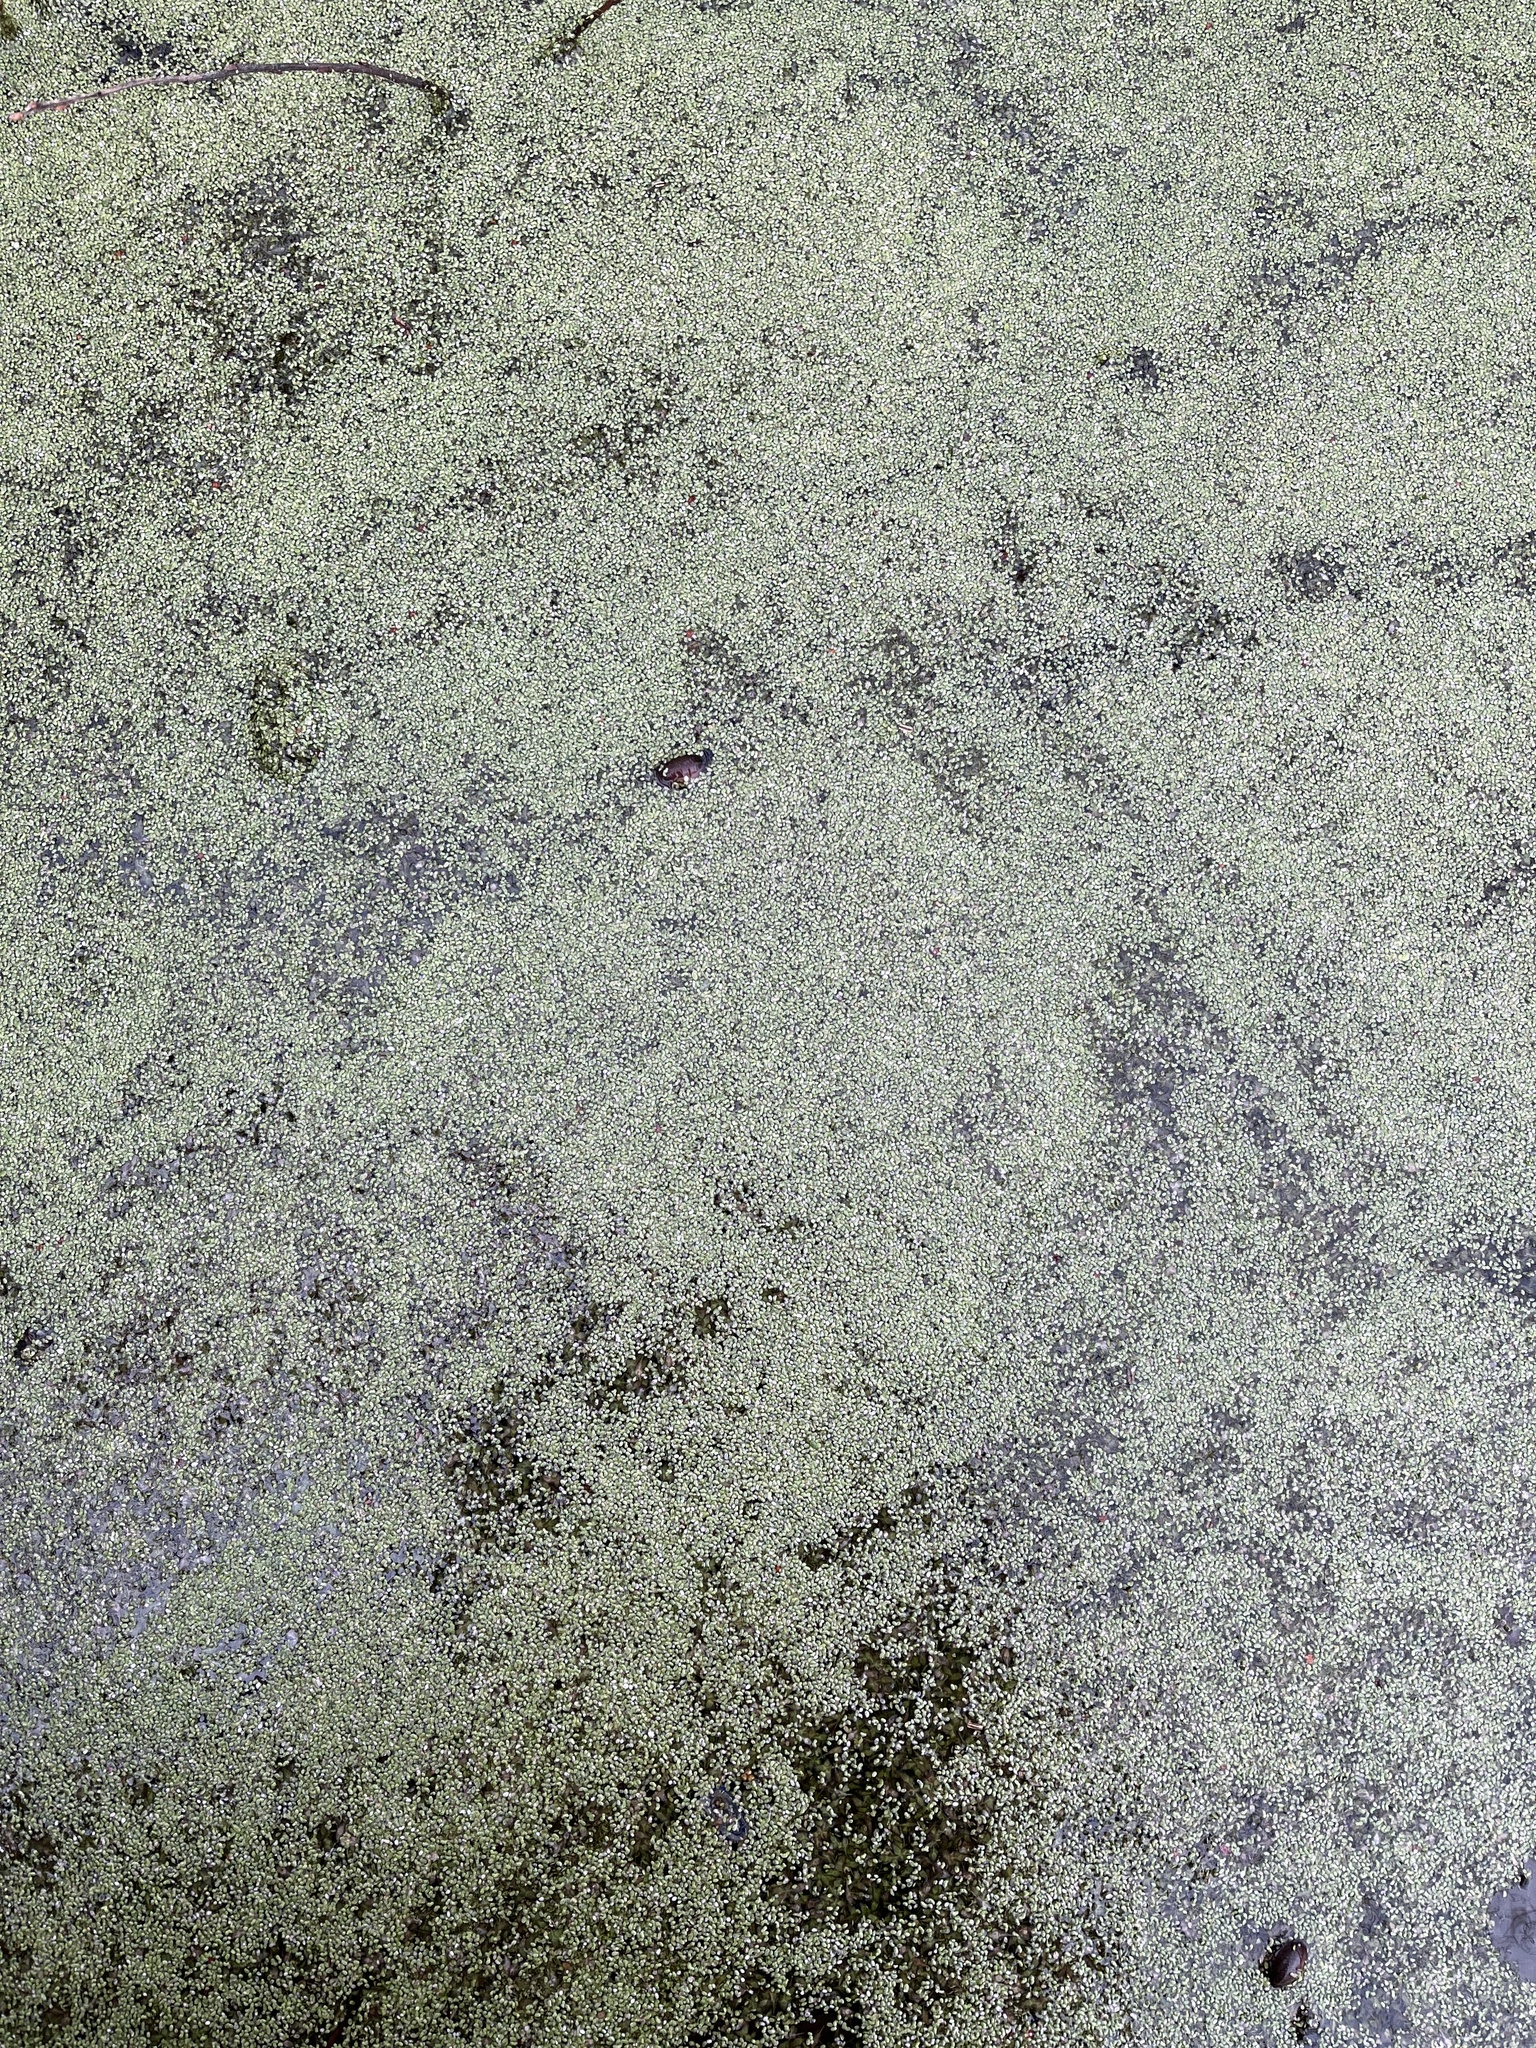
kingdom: Plantae
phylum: Tracheophyta
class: Liliopsida
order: Alismatales
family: Araceae
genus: Lemna
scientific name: Lemna minuta
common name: Least duckweed
